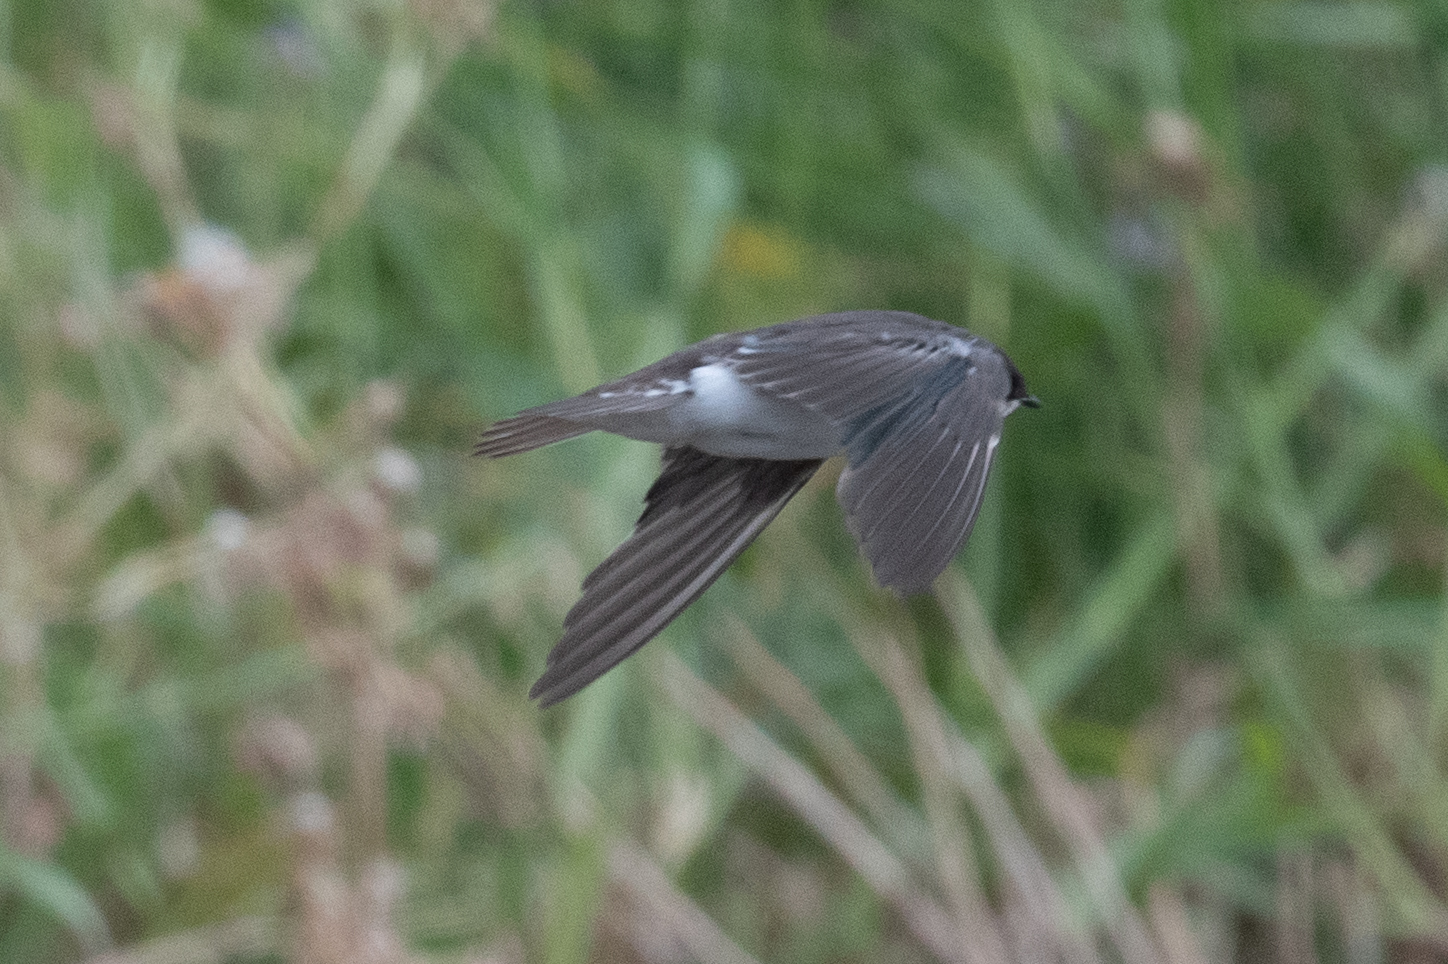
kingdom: Animalia
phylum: Chordata
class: Aves
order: Passeriformes
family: Hirundinidae
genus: Tachycineta
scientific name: Tachycineta bicolor
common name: Tree swallow
